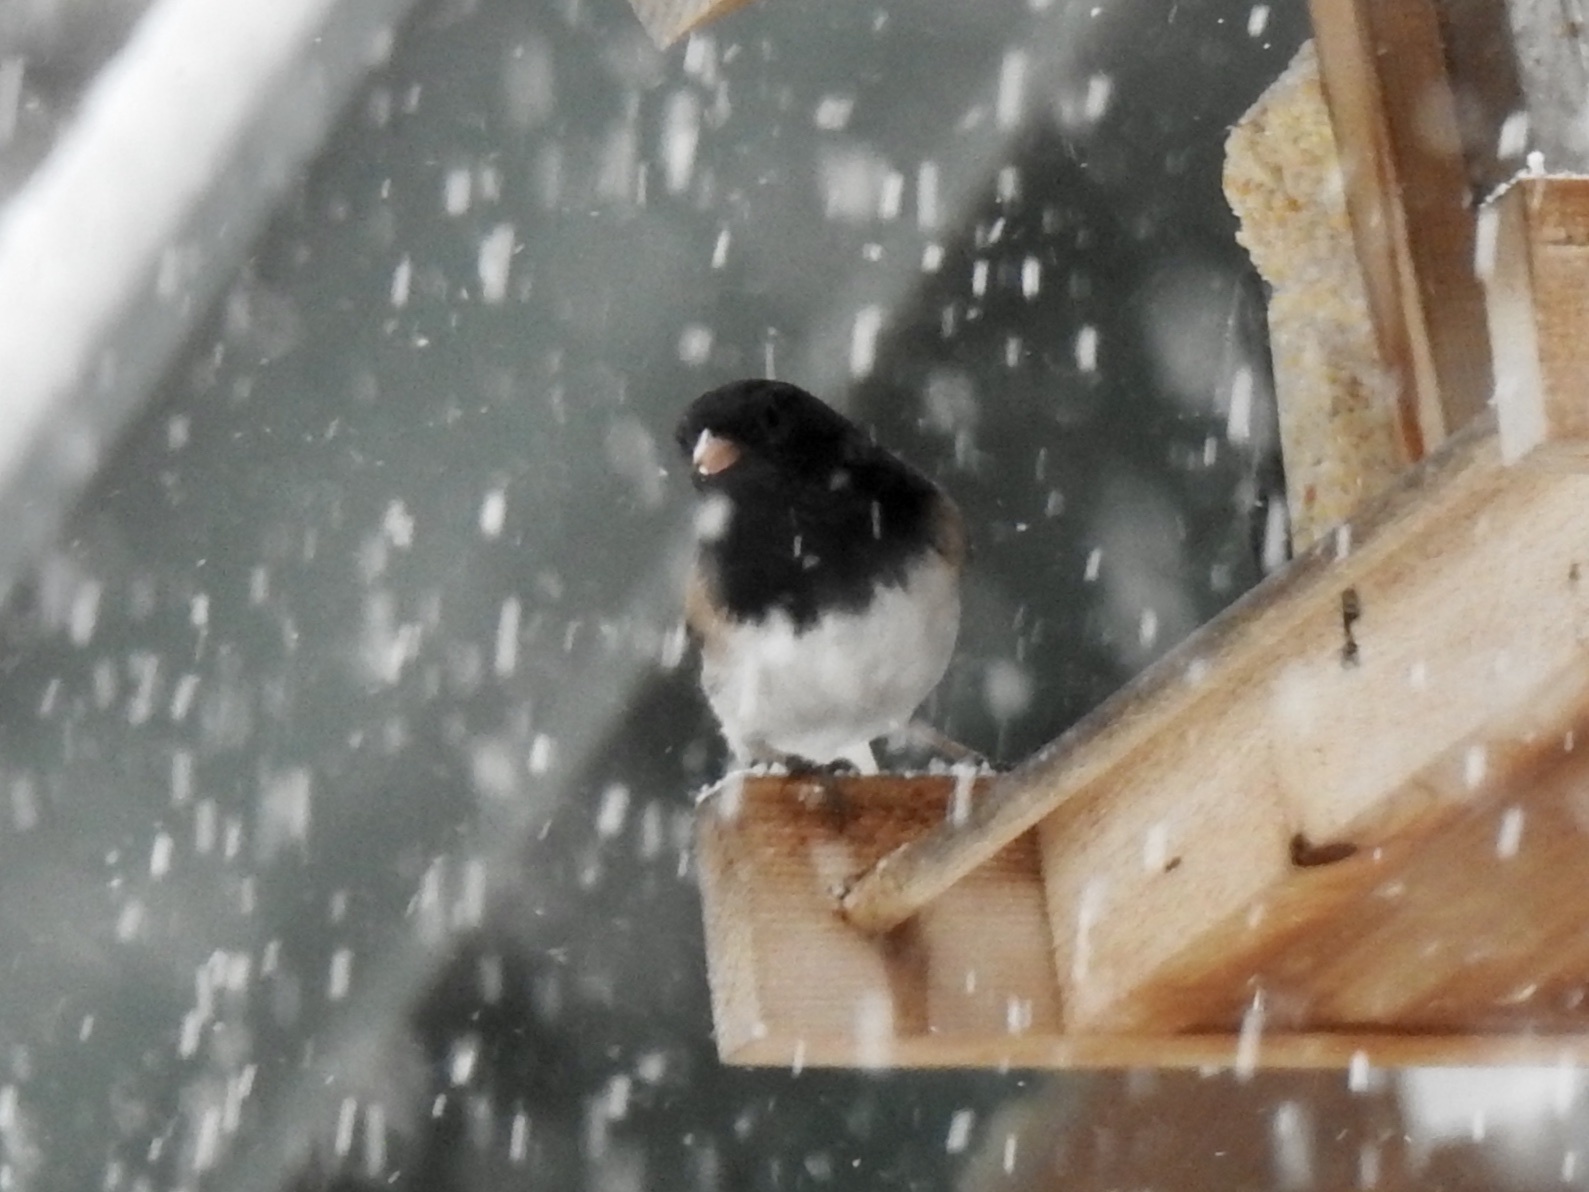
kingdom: Animalia
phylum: Chordata
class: Aves
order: Passeriformes
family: Passerellidae
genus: Junco
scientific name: Junco hyemalis
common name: Dark-eyed junco
